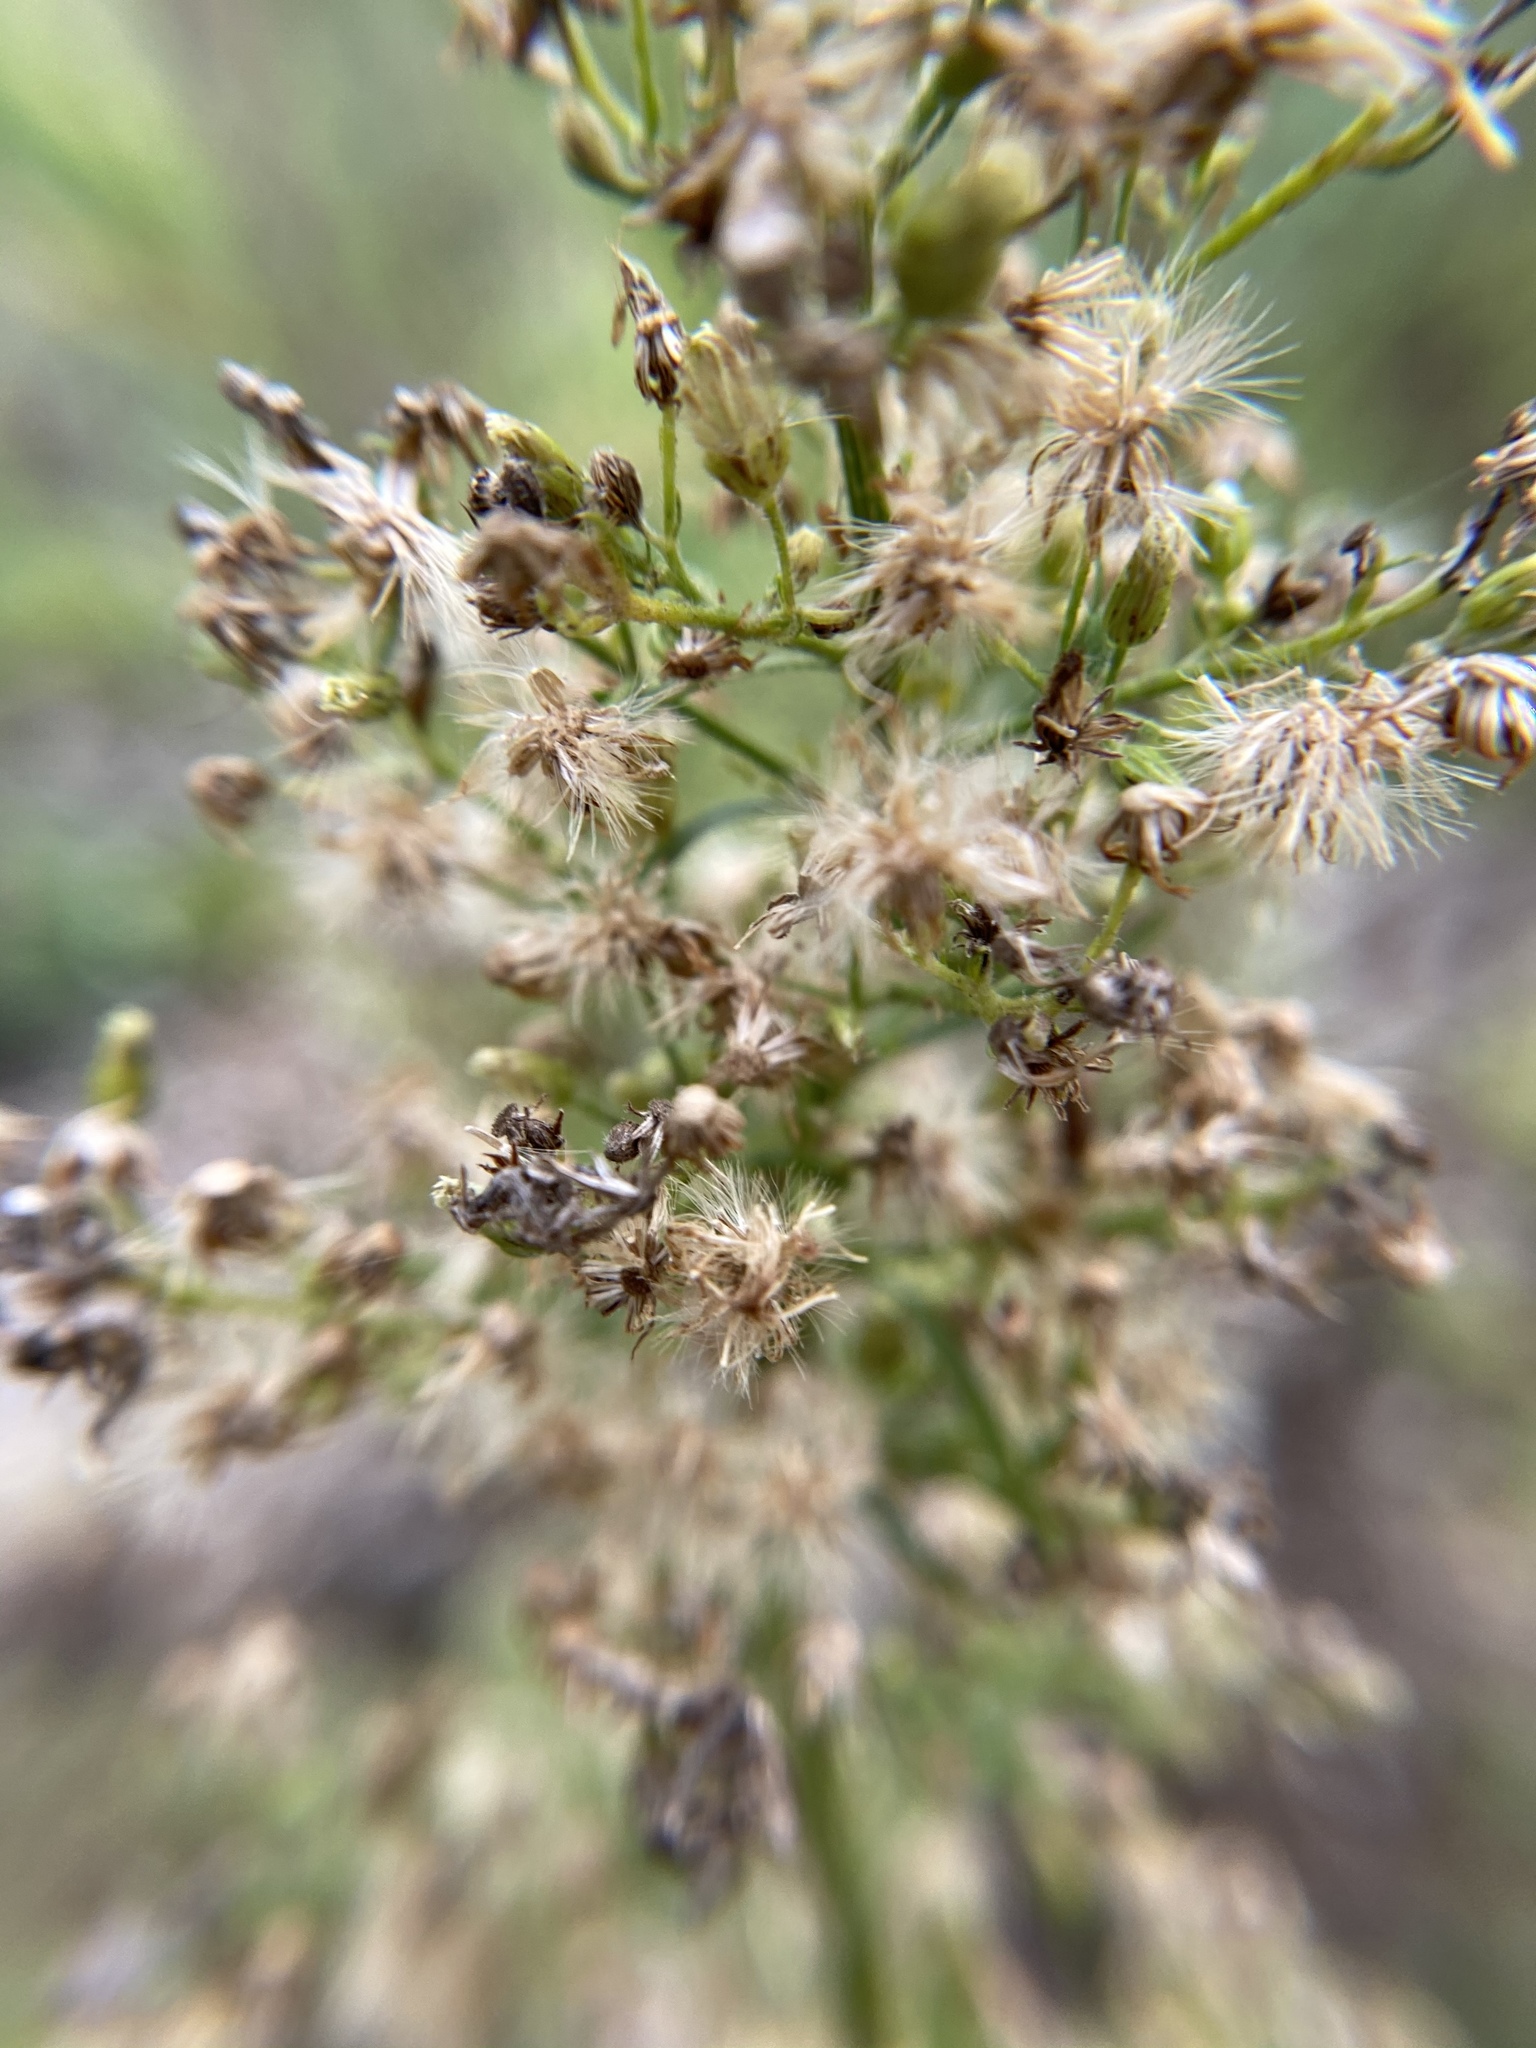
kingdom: Plantae
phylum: Tracheophyta
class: Magnoliopsida
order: Asterales
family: Asteraceae
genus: Erigeron
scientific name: Erigeron canadensis
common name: Canadian fleabane
